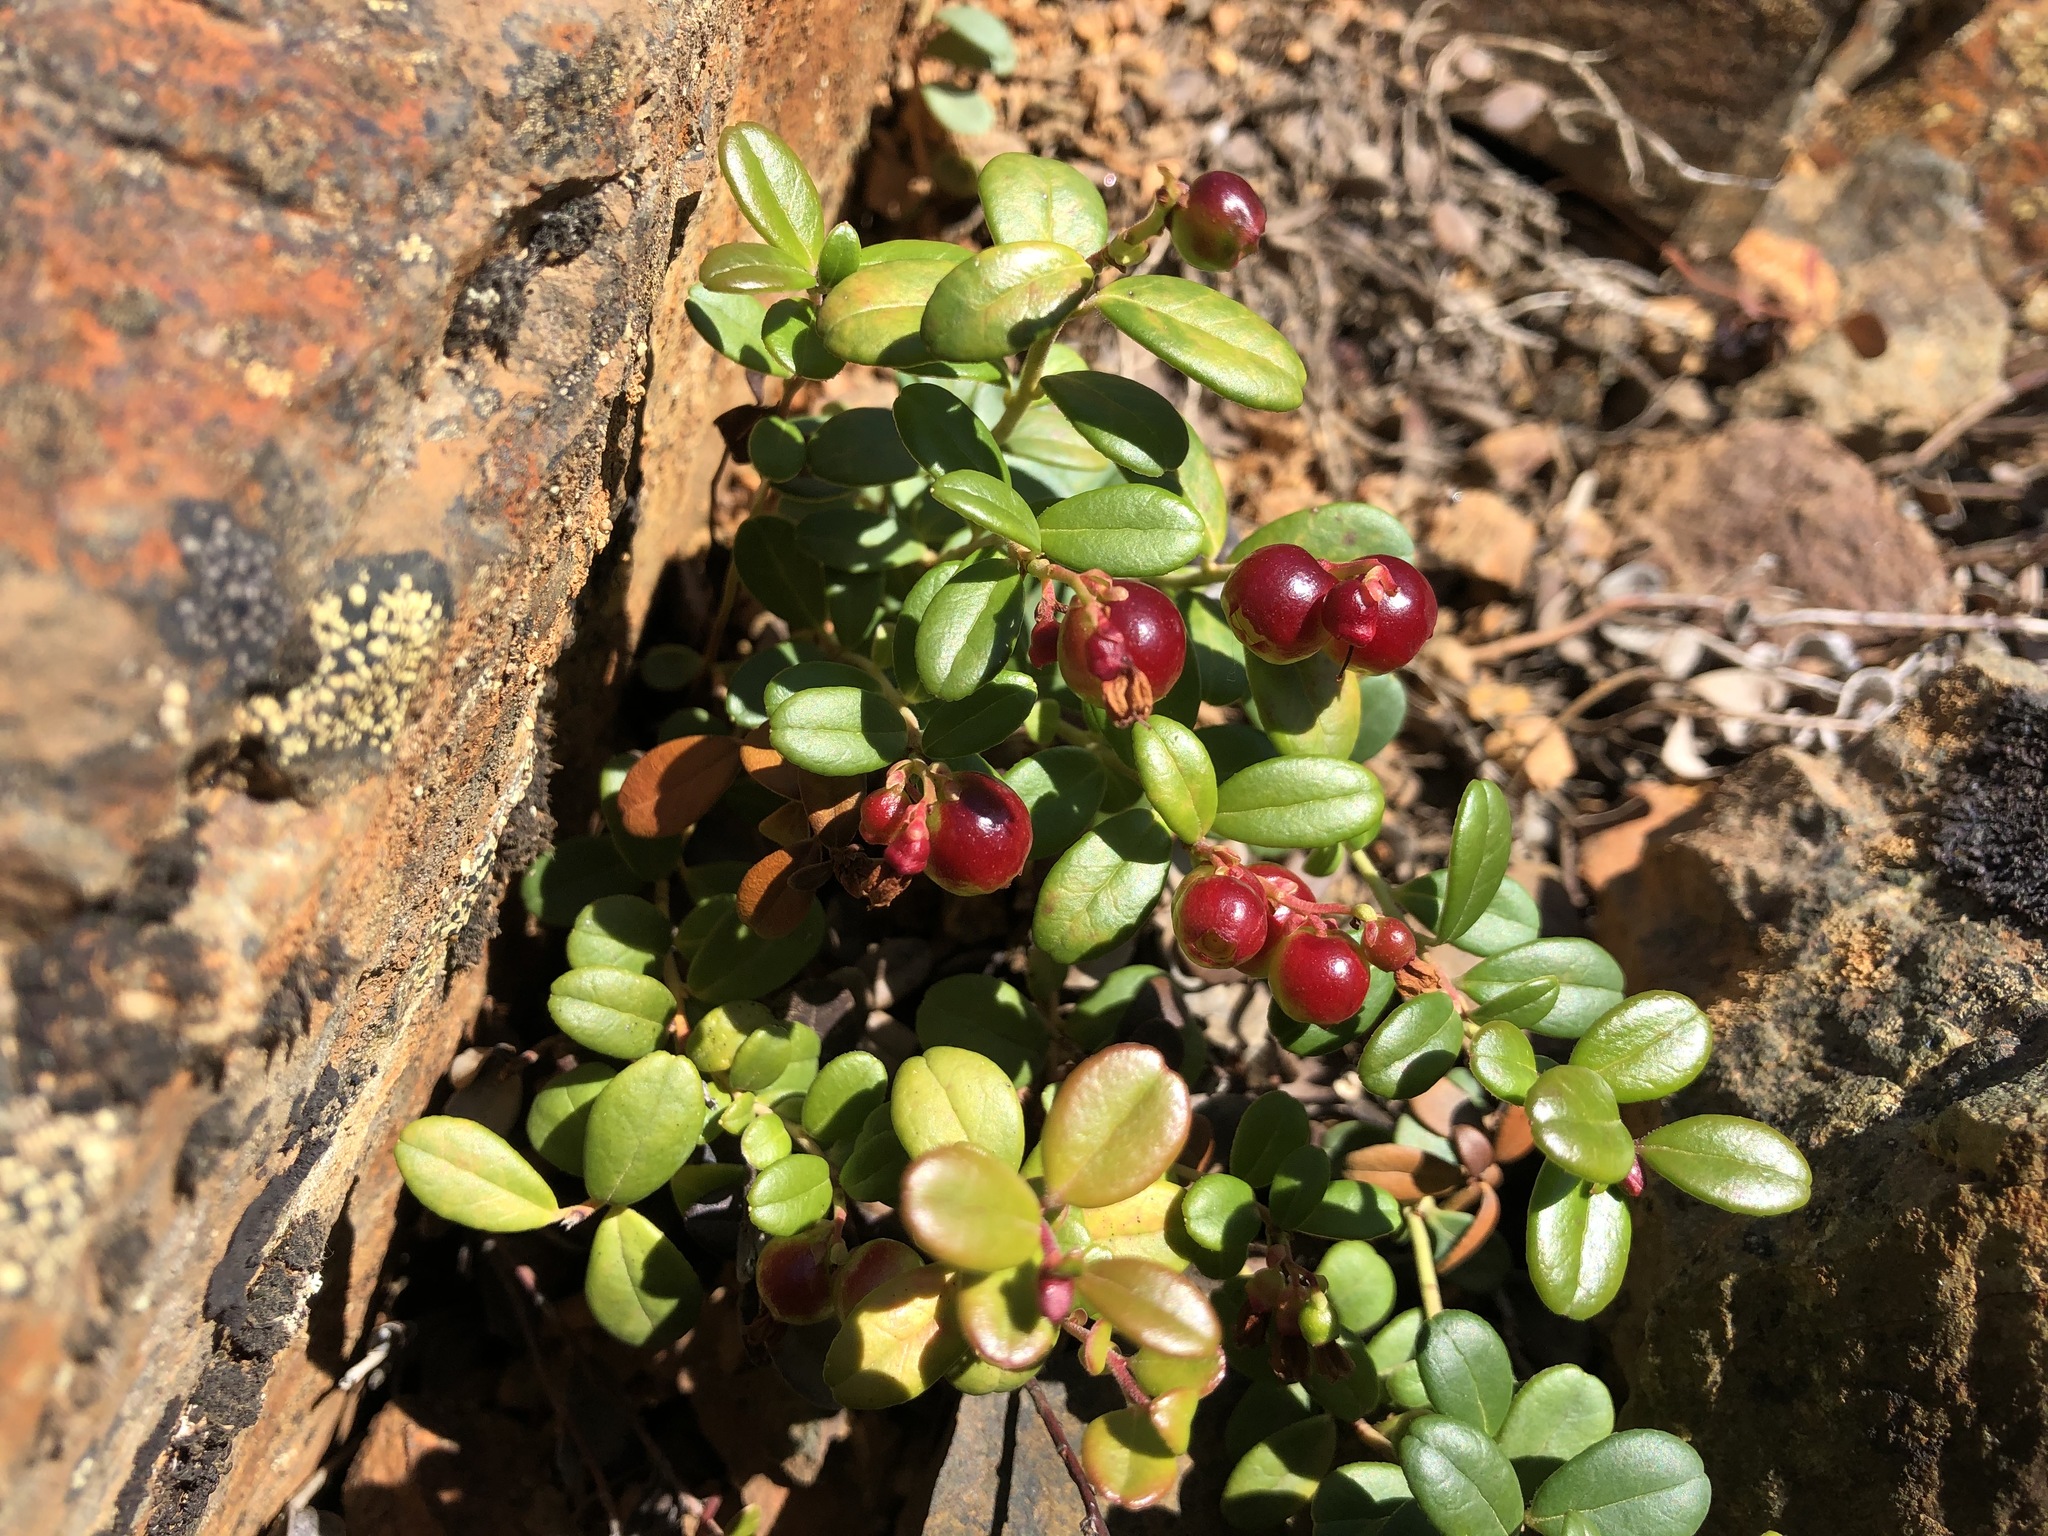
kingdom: Plantae
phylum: Tracheophyta
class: Magnoliopsida
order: Ericales
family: Ericaceae
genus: Vaccinium
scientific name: Vaccinium vitis-idaea
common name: Cowberry
